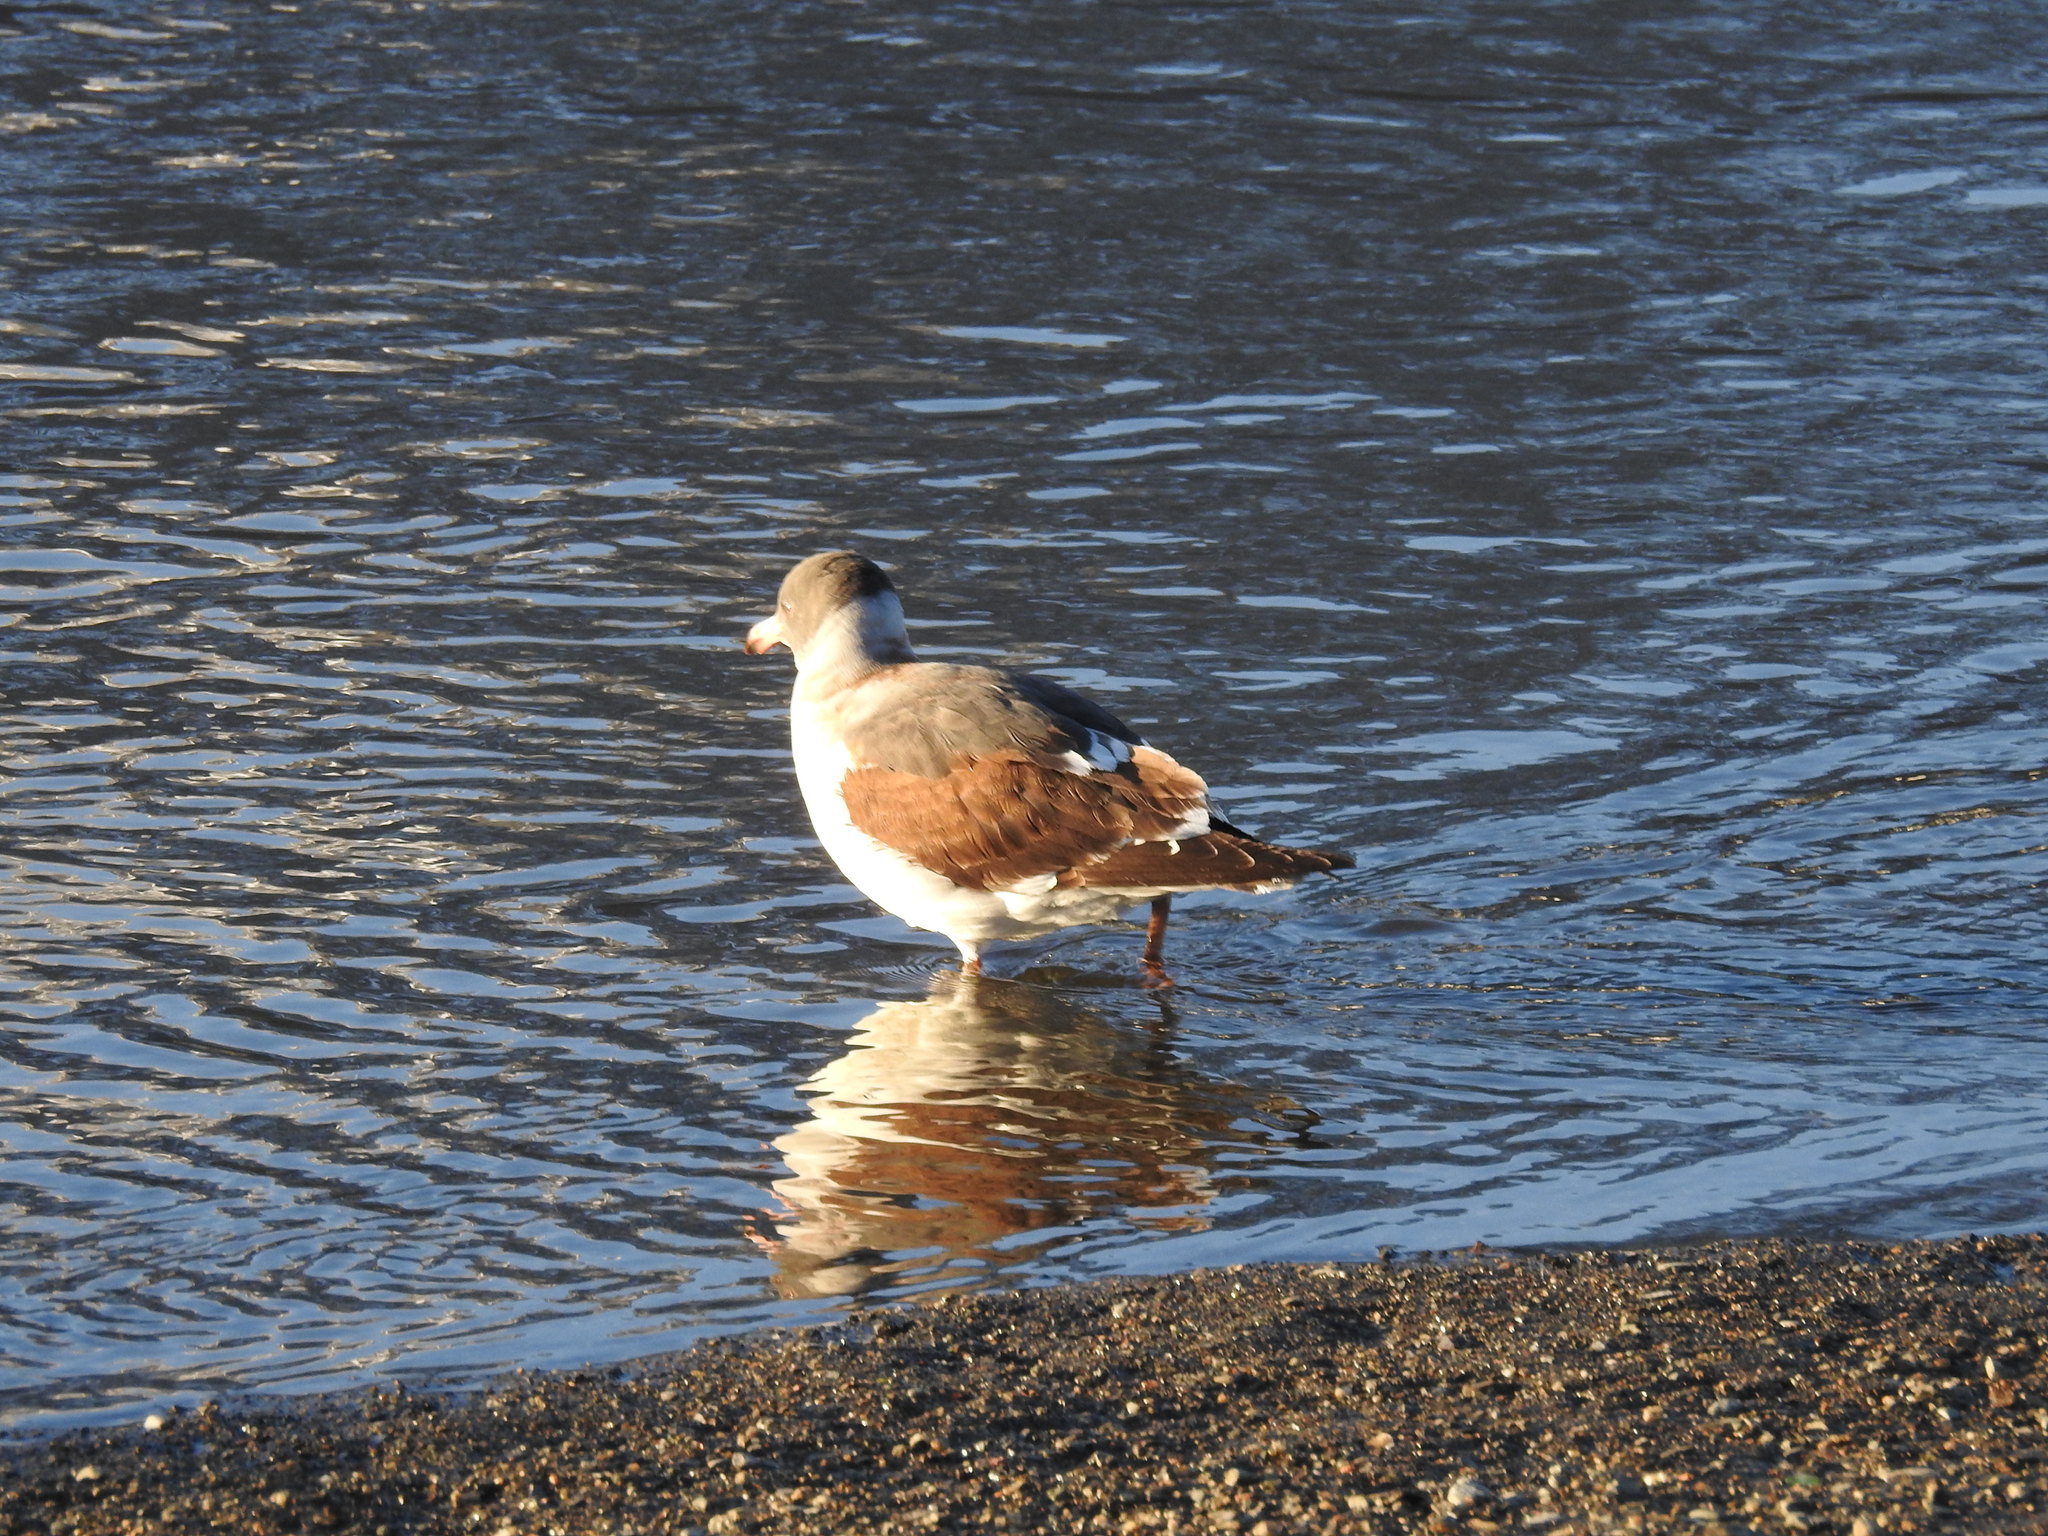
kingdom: Animalia
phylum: Chordata
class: Aves
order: Charadriiformes
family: Laridae
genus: Leucophaeus
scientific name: Leucophaeus scoresbii
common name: Dolphin gull
